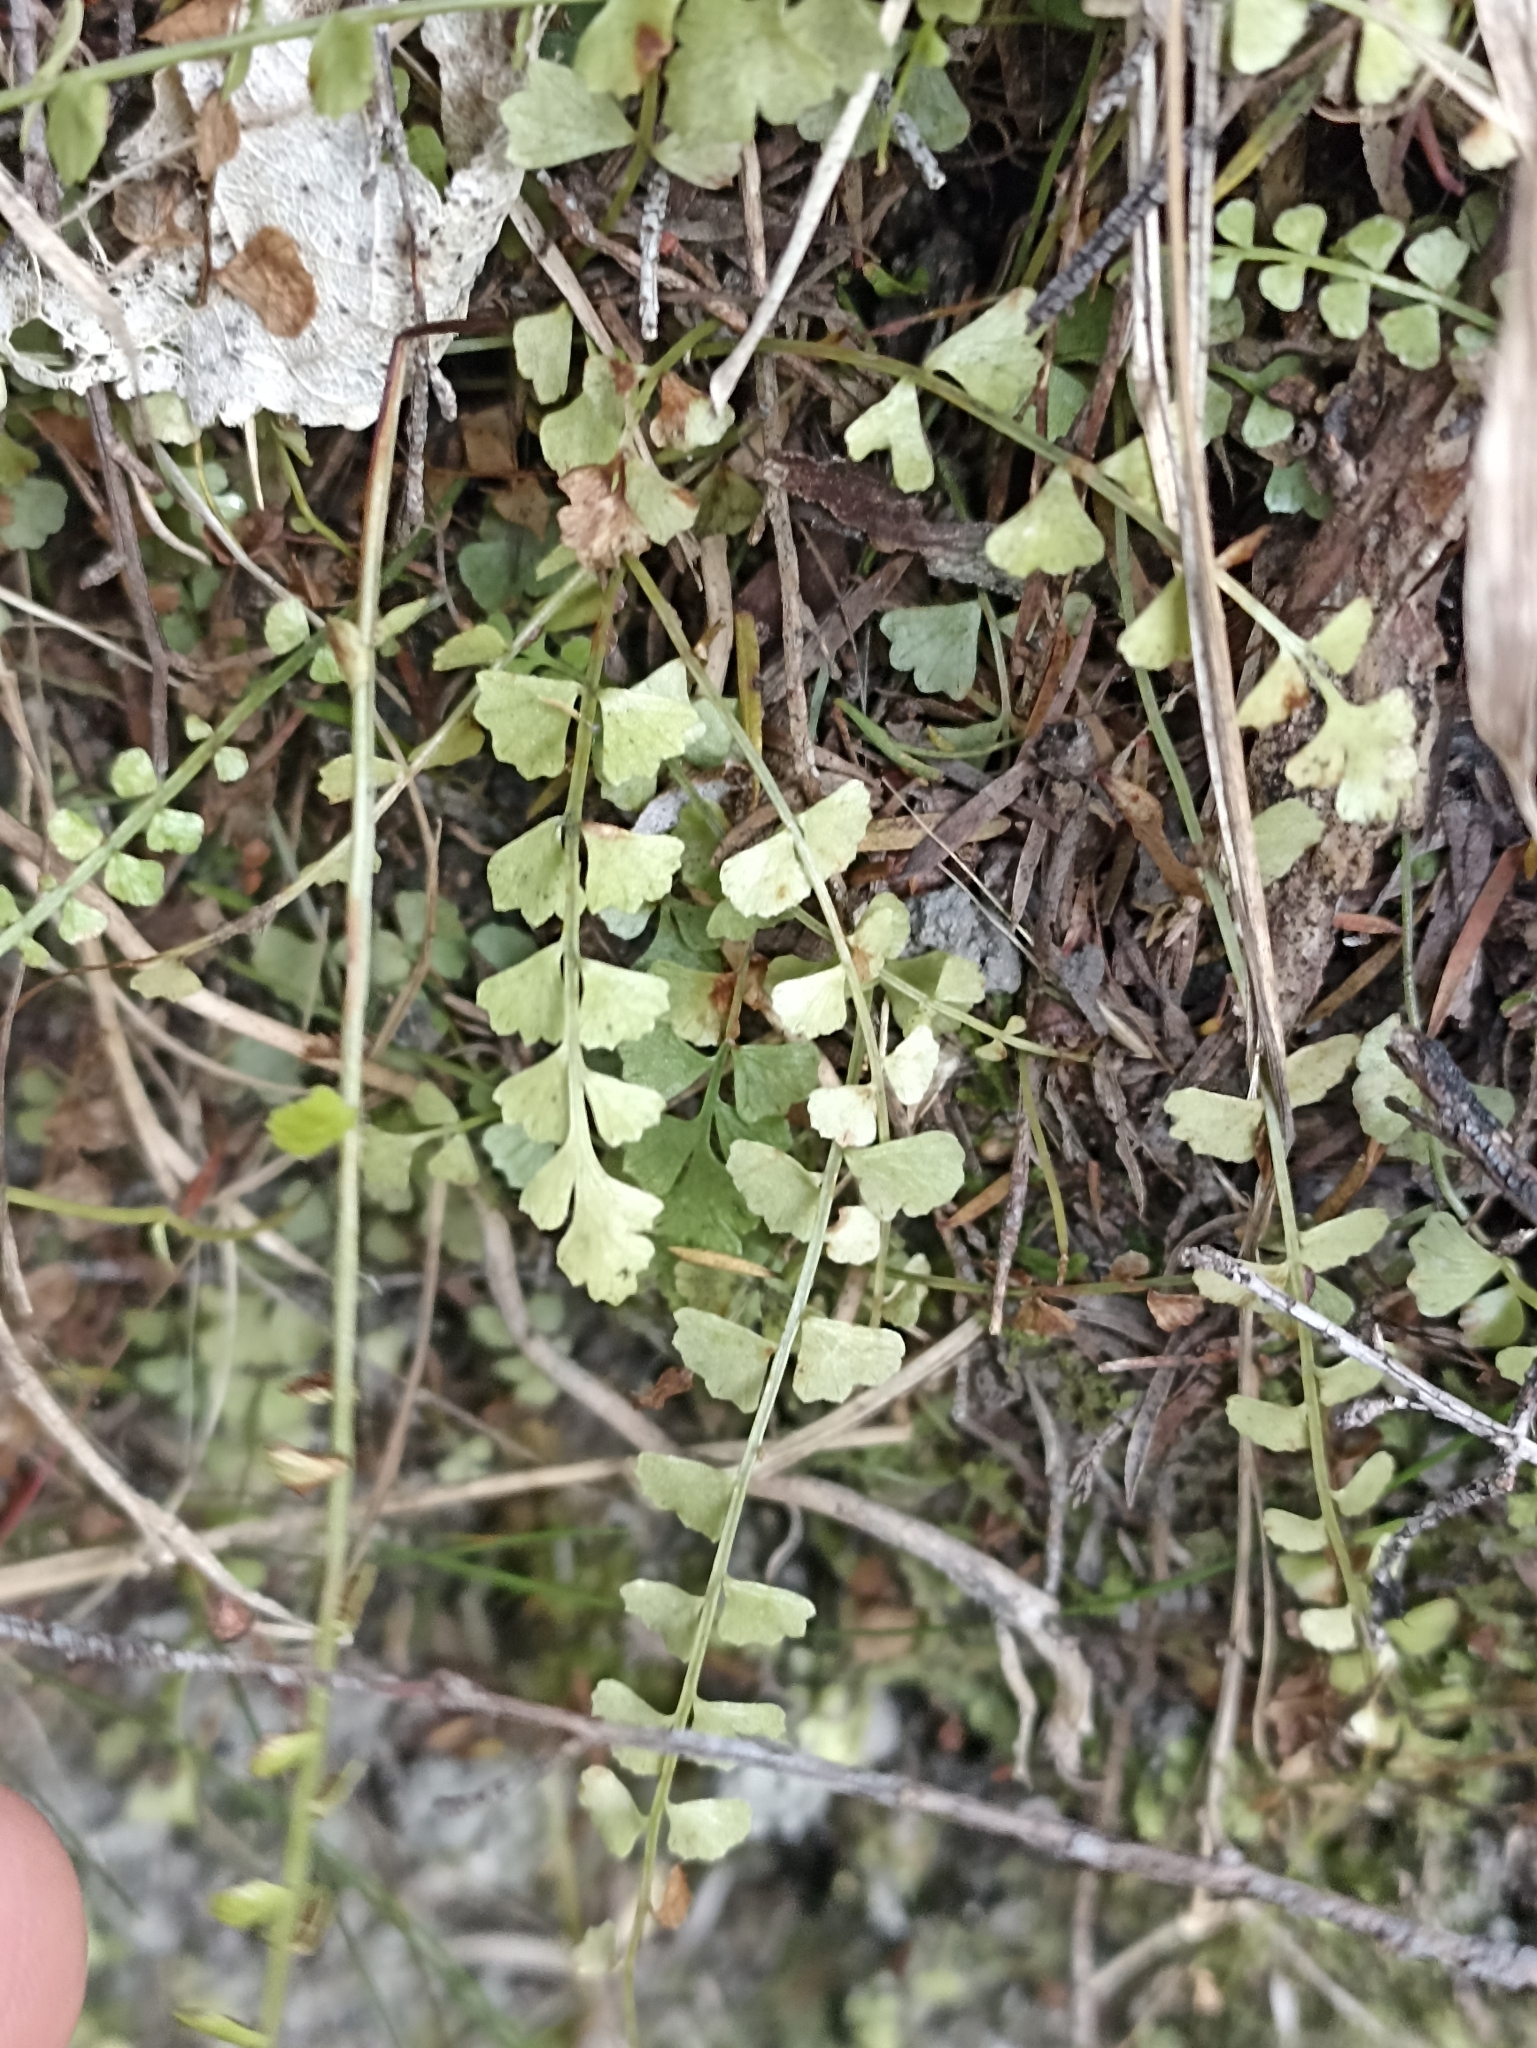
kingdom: Plantae
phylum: Tracheophyta
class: Polypodiopsida
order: Polypodiales
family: Aspleniaceae
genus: Asplenium
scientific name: Asplenium flabellifolium
